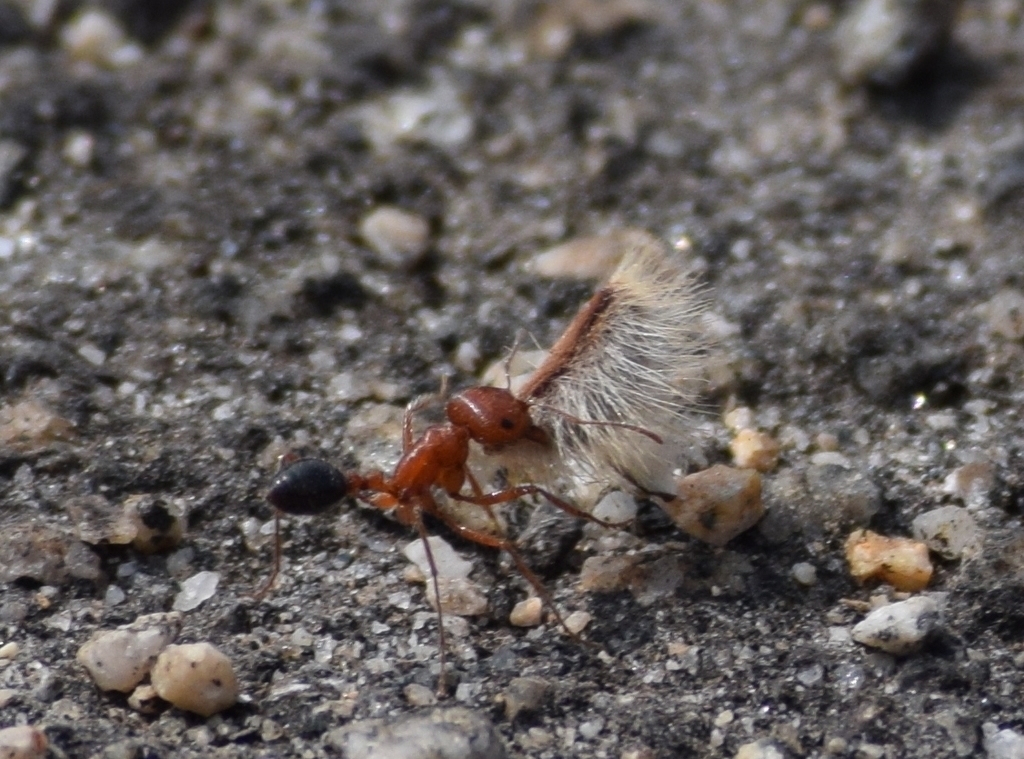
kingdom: Plantae
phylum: Tracheophyta
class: Magnoliopsida
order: Zygophyllales
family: Zygophyllaceae
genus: Larrea
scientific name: Larrea tridentata
